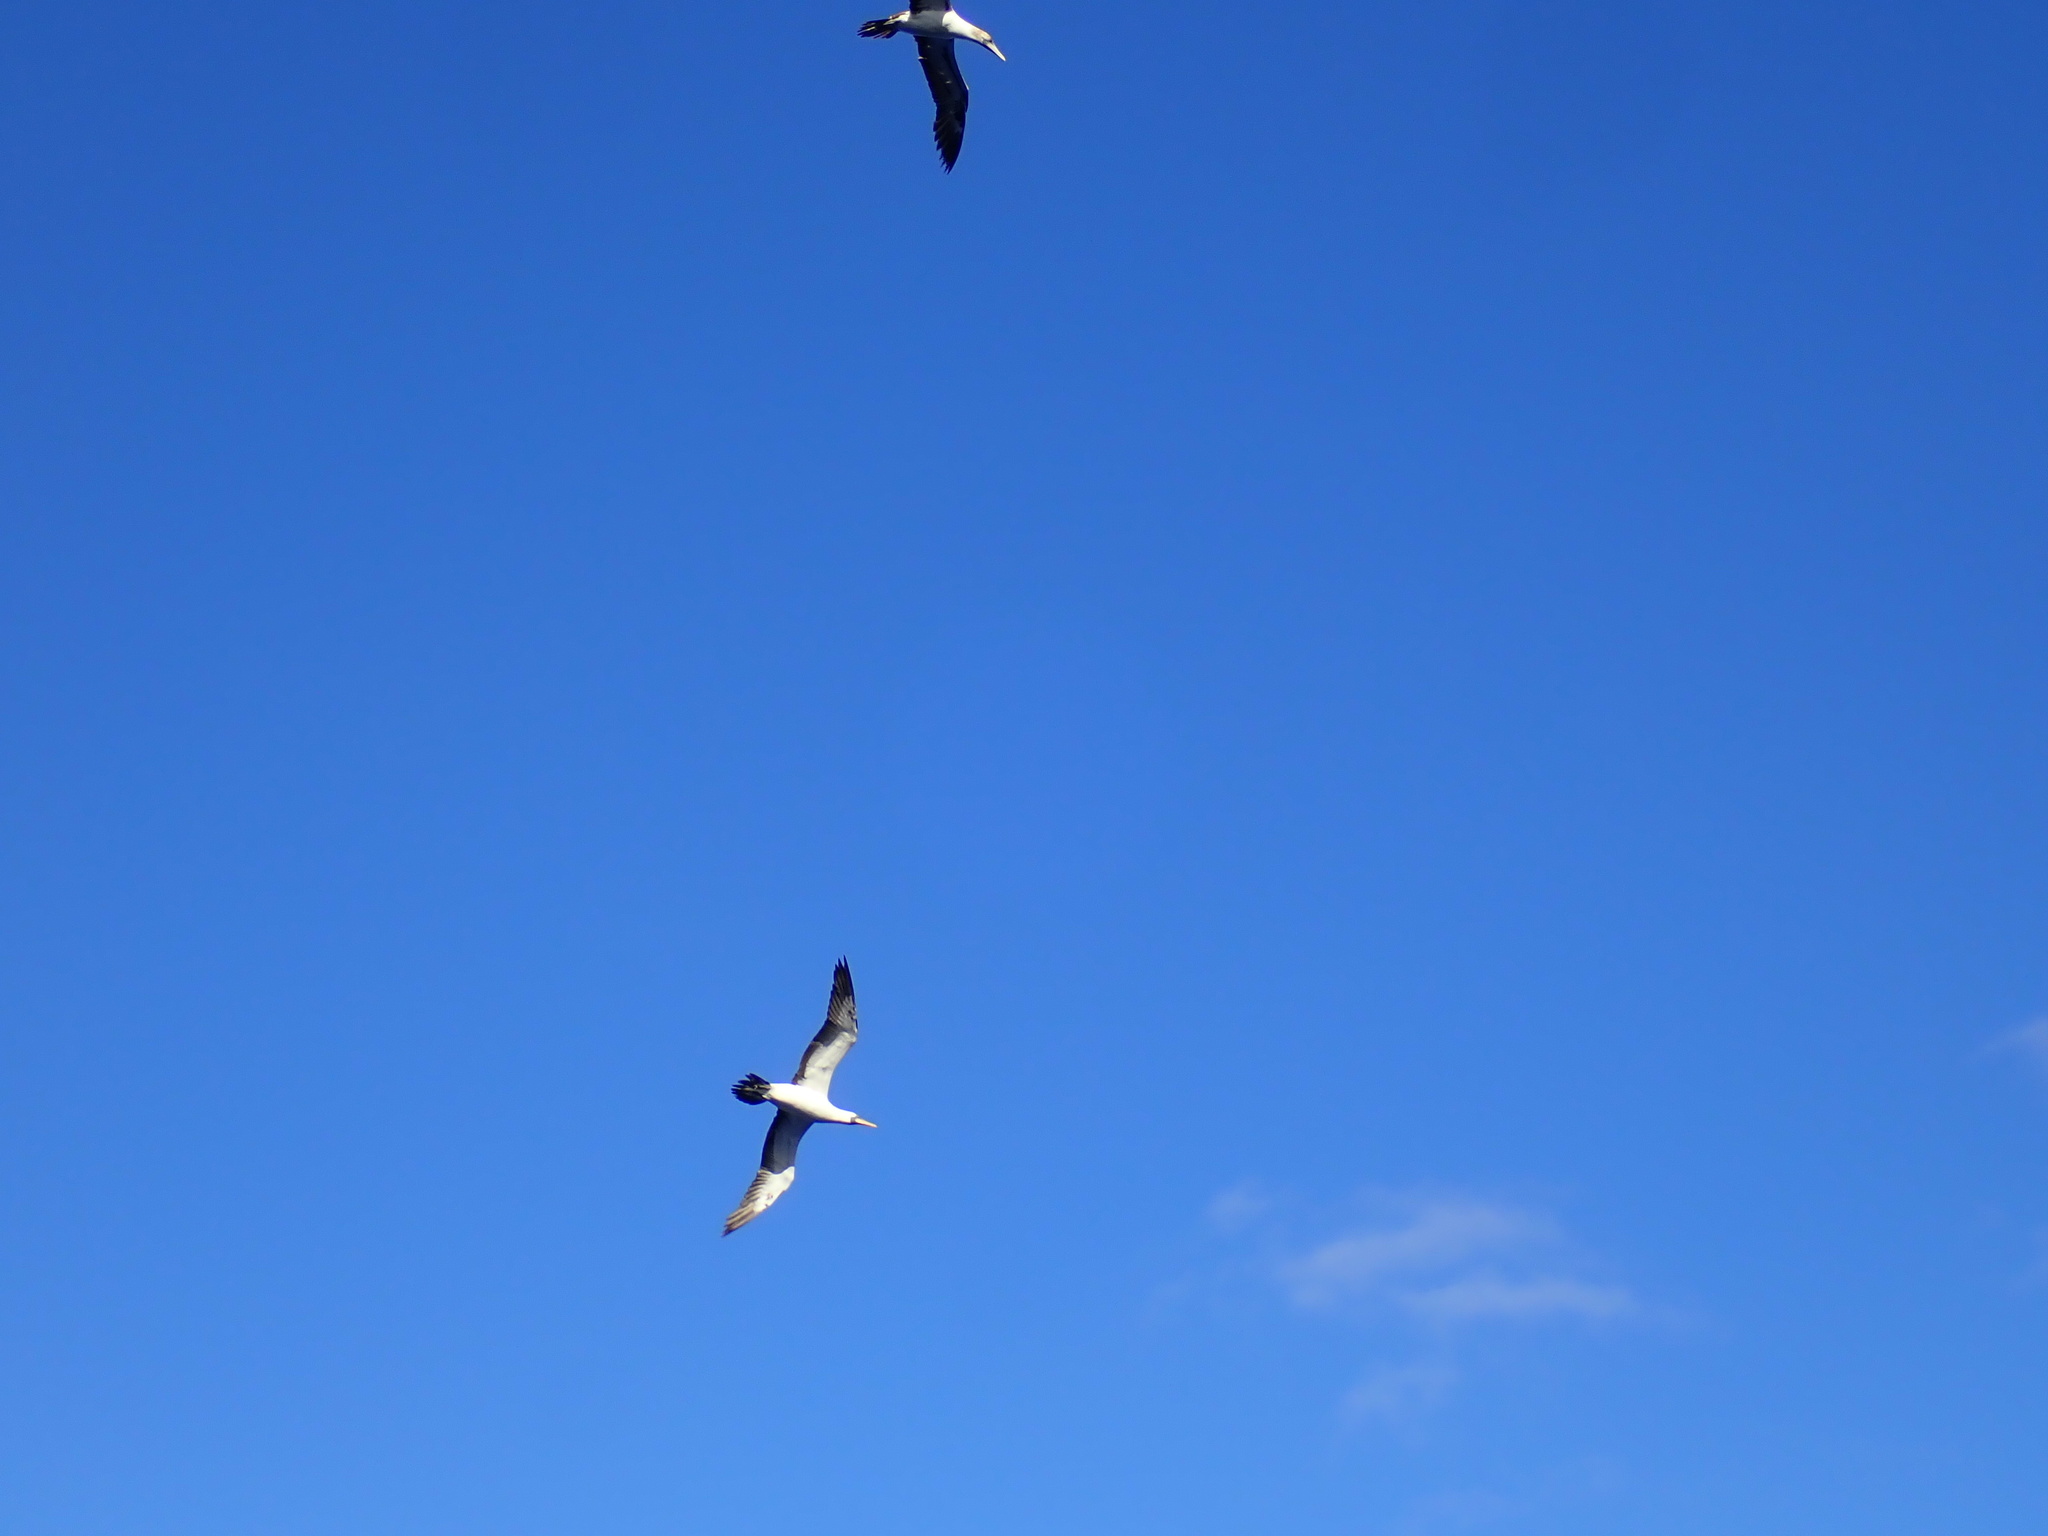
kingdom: Animalia
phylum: Chordata
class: Aves
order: Suliformes
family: Sulidae
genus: Sula
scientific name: Sula granti
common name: Nazca booby
